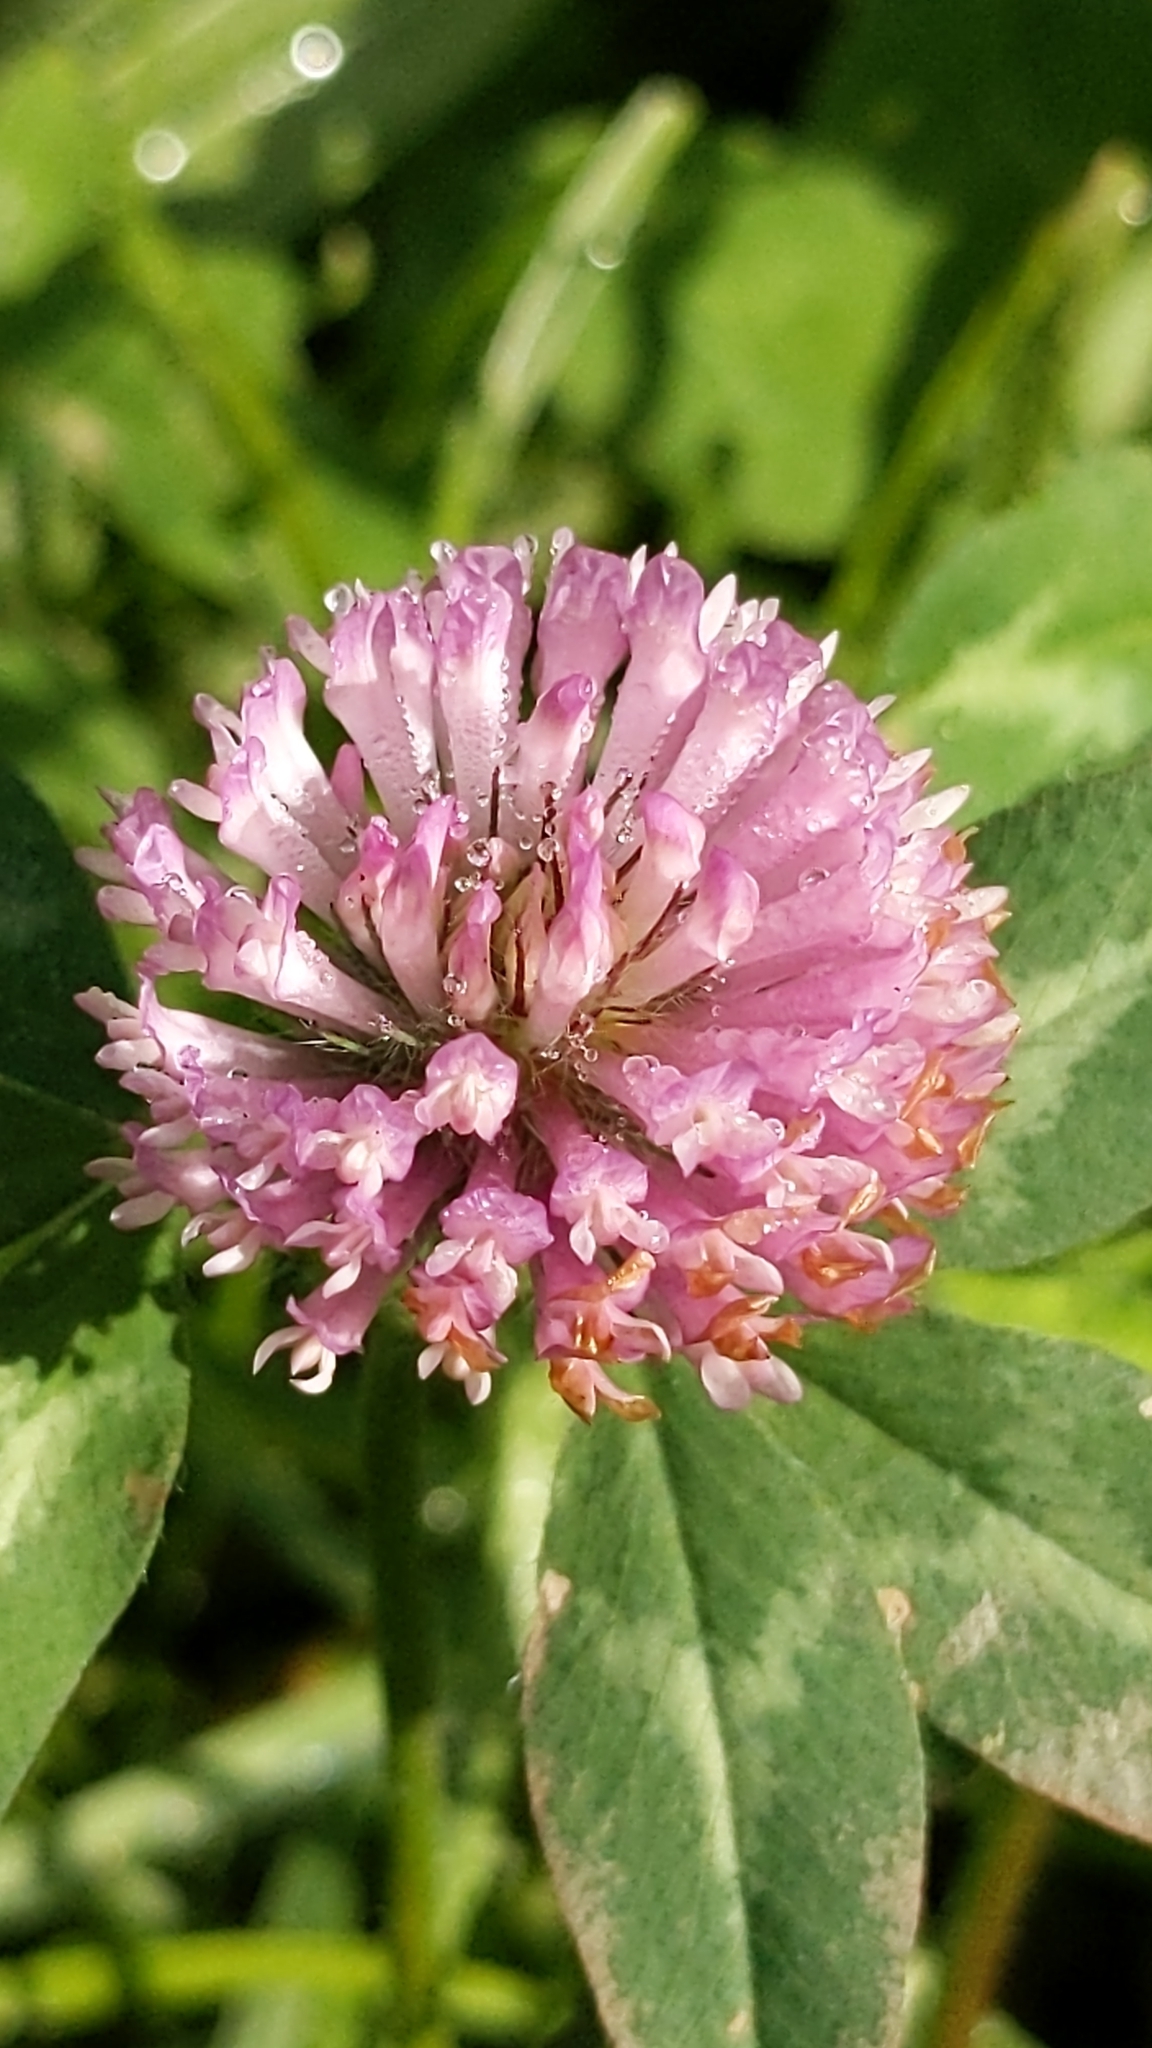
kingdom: Plantae
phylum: Tracheophyta
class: Magnoliopsida
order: Fabales
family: Fabaceae
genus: Trifolium
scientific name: Trifolium pratense
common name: Red clover
